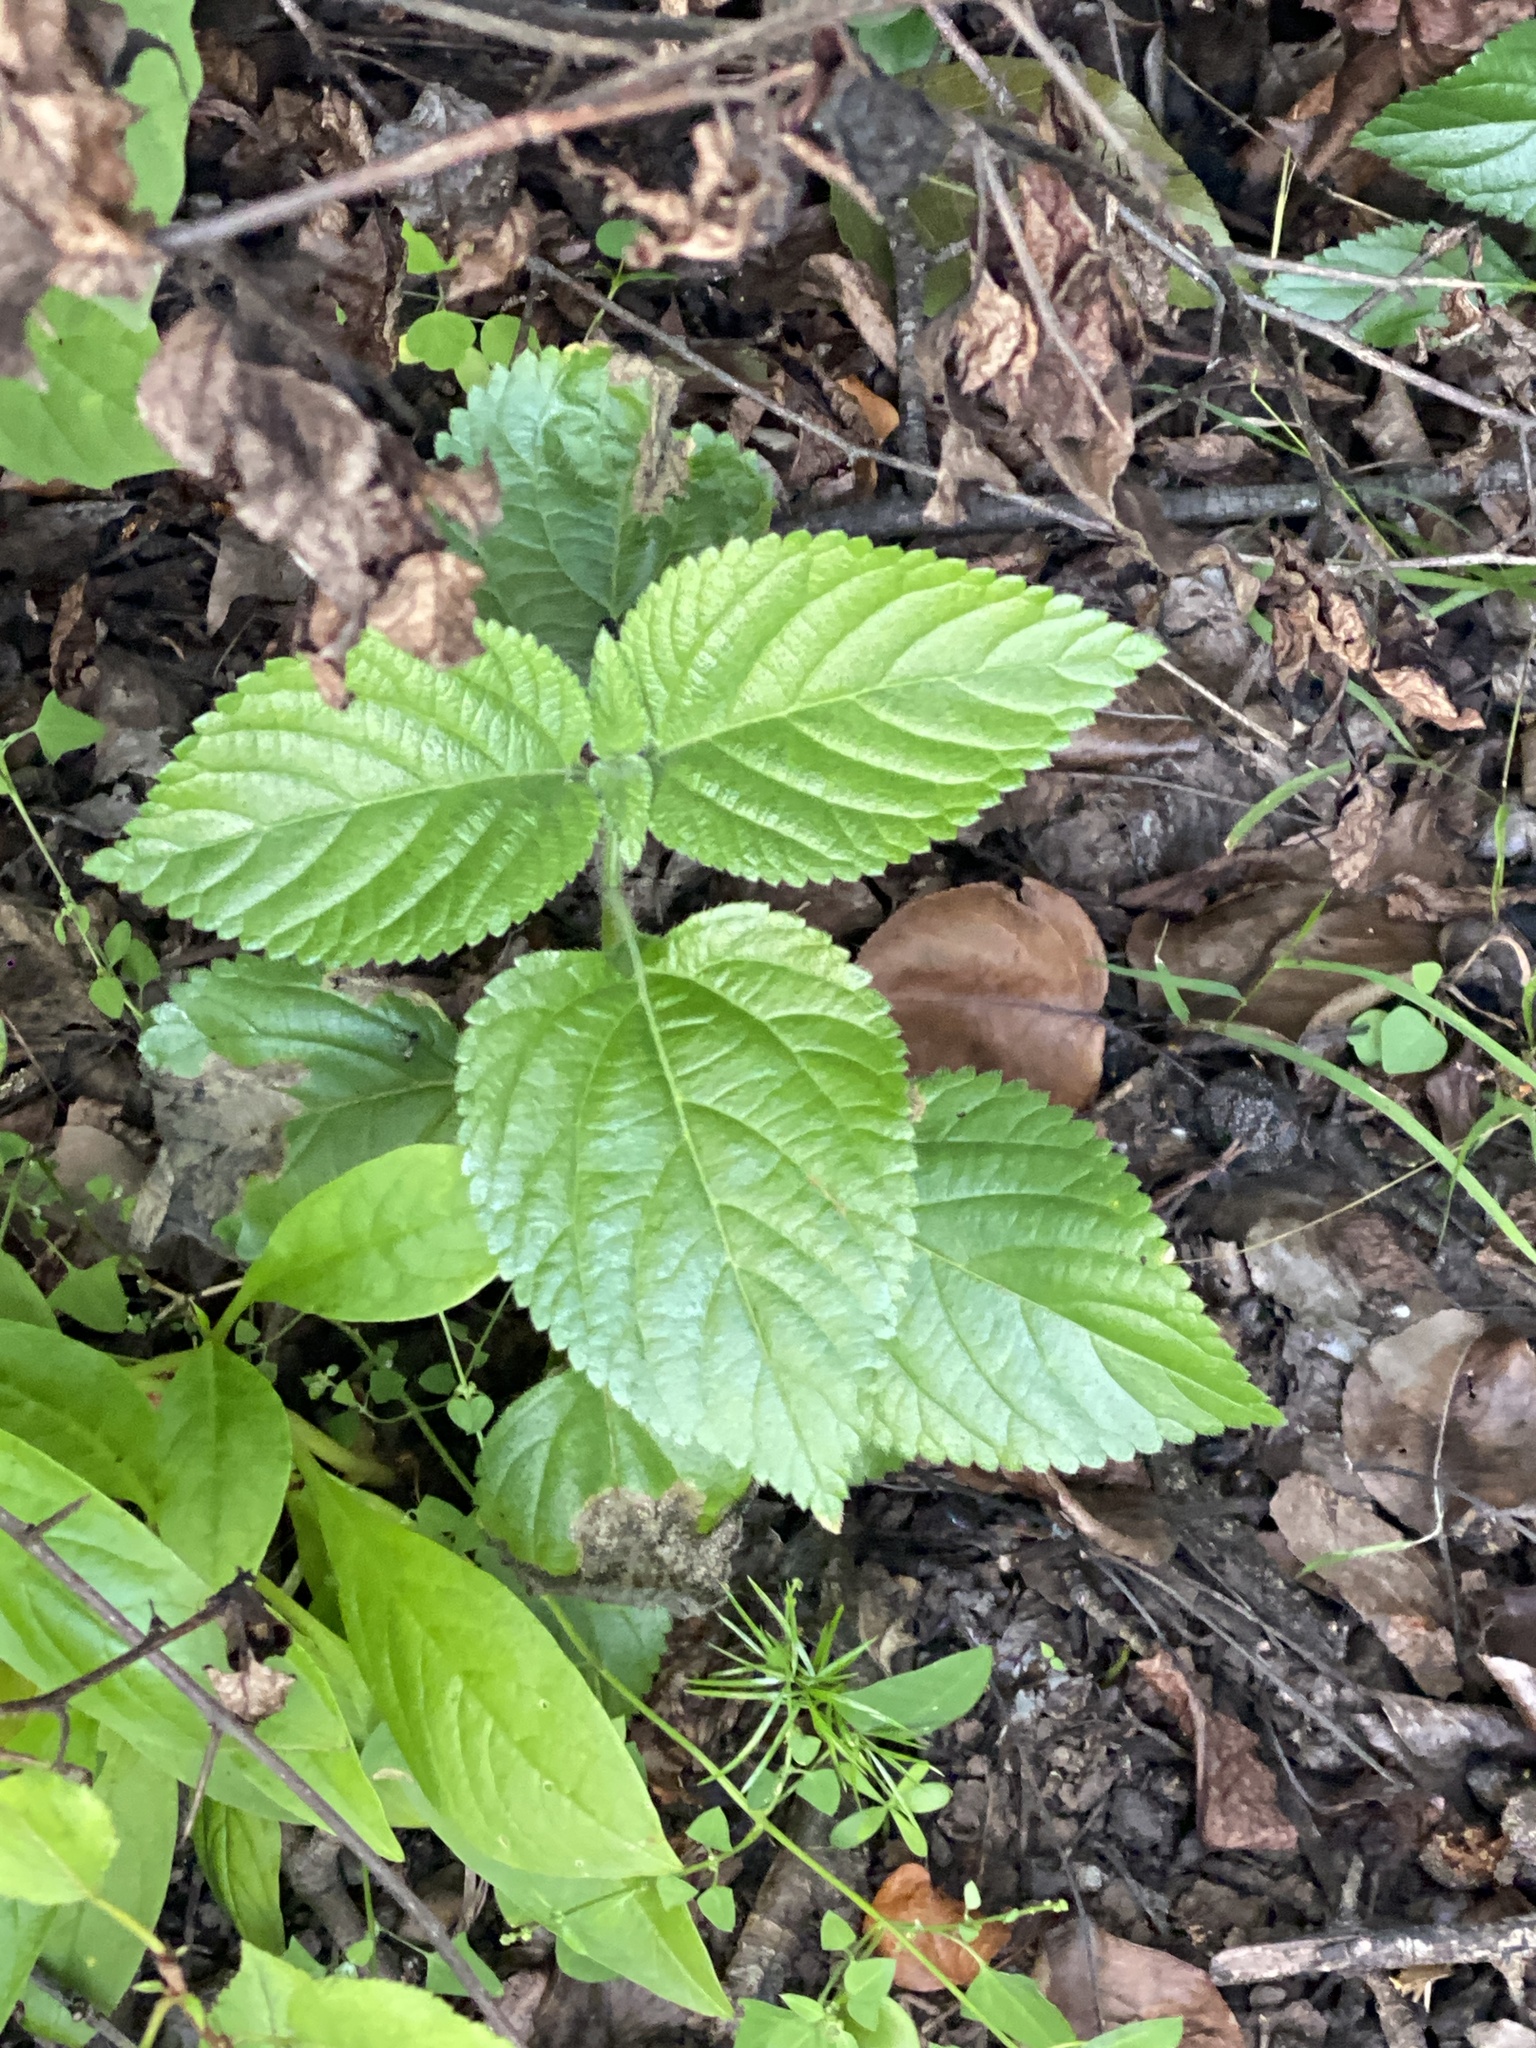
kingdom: Plantae
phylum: Tracheophyta
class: Magnoliopsida
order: Lamiales
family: Verbenaceae
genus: Lantana
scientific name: Lantana camara
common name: Lantana
